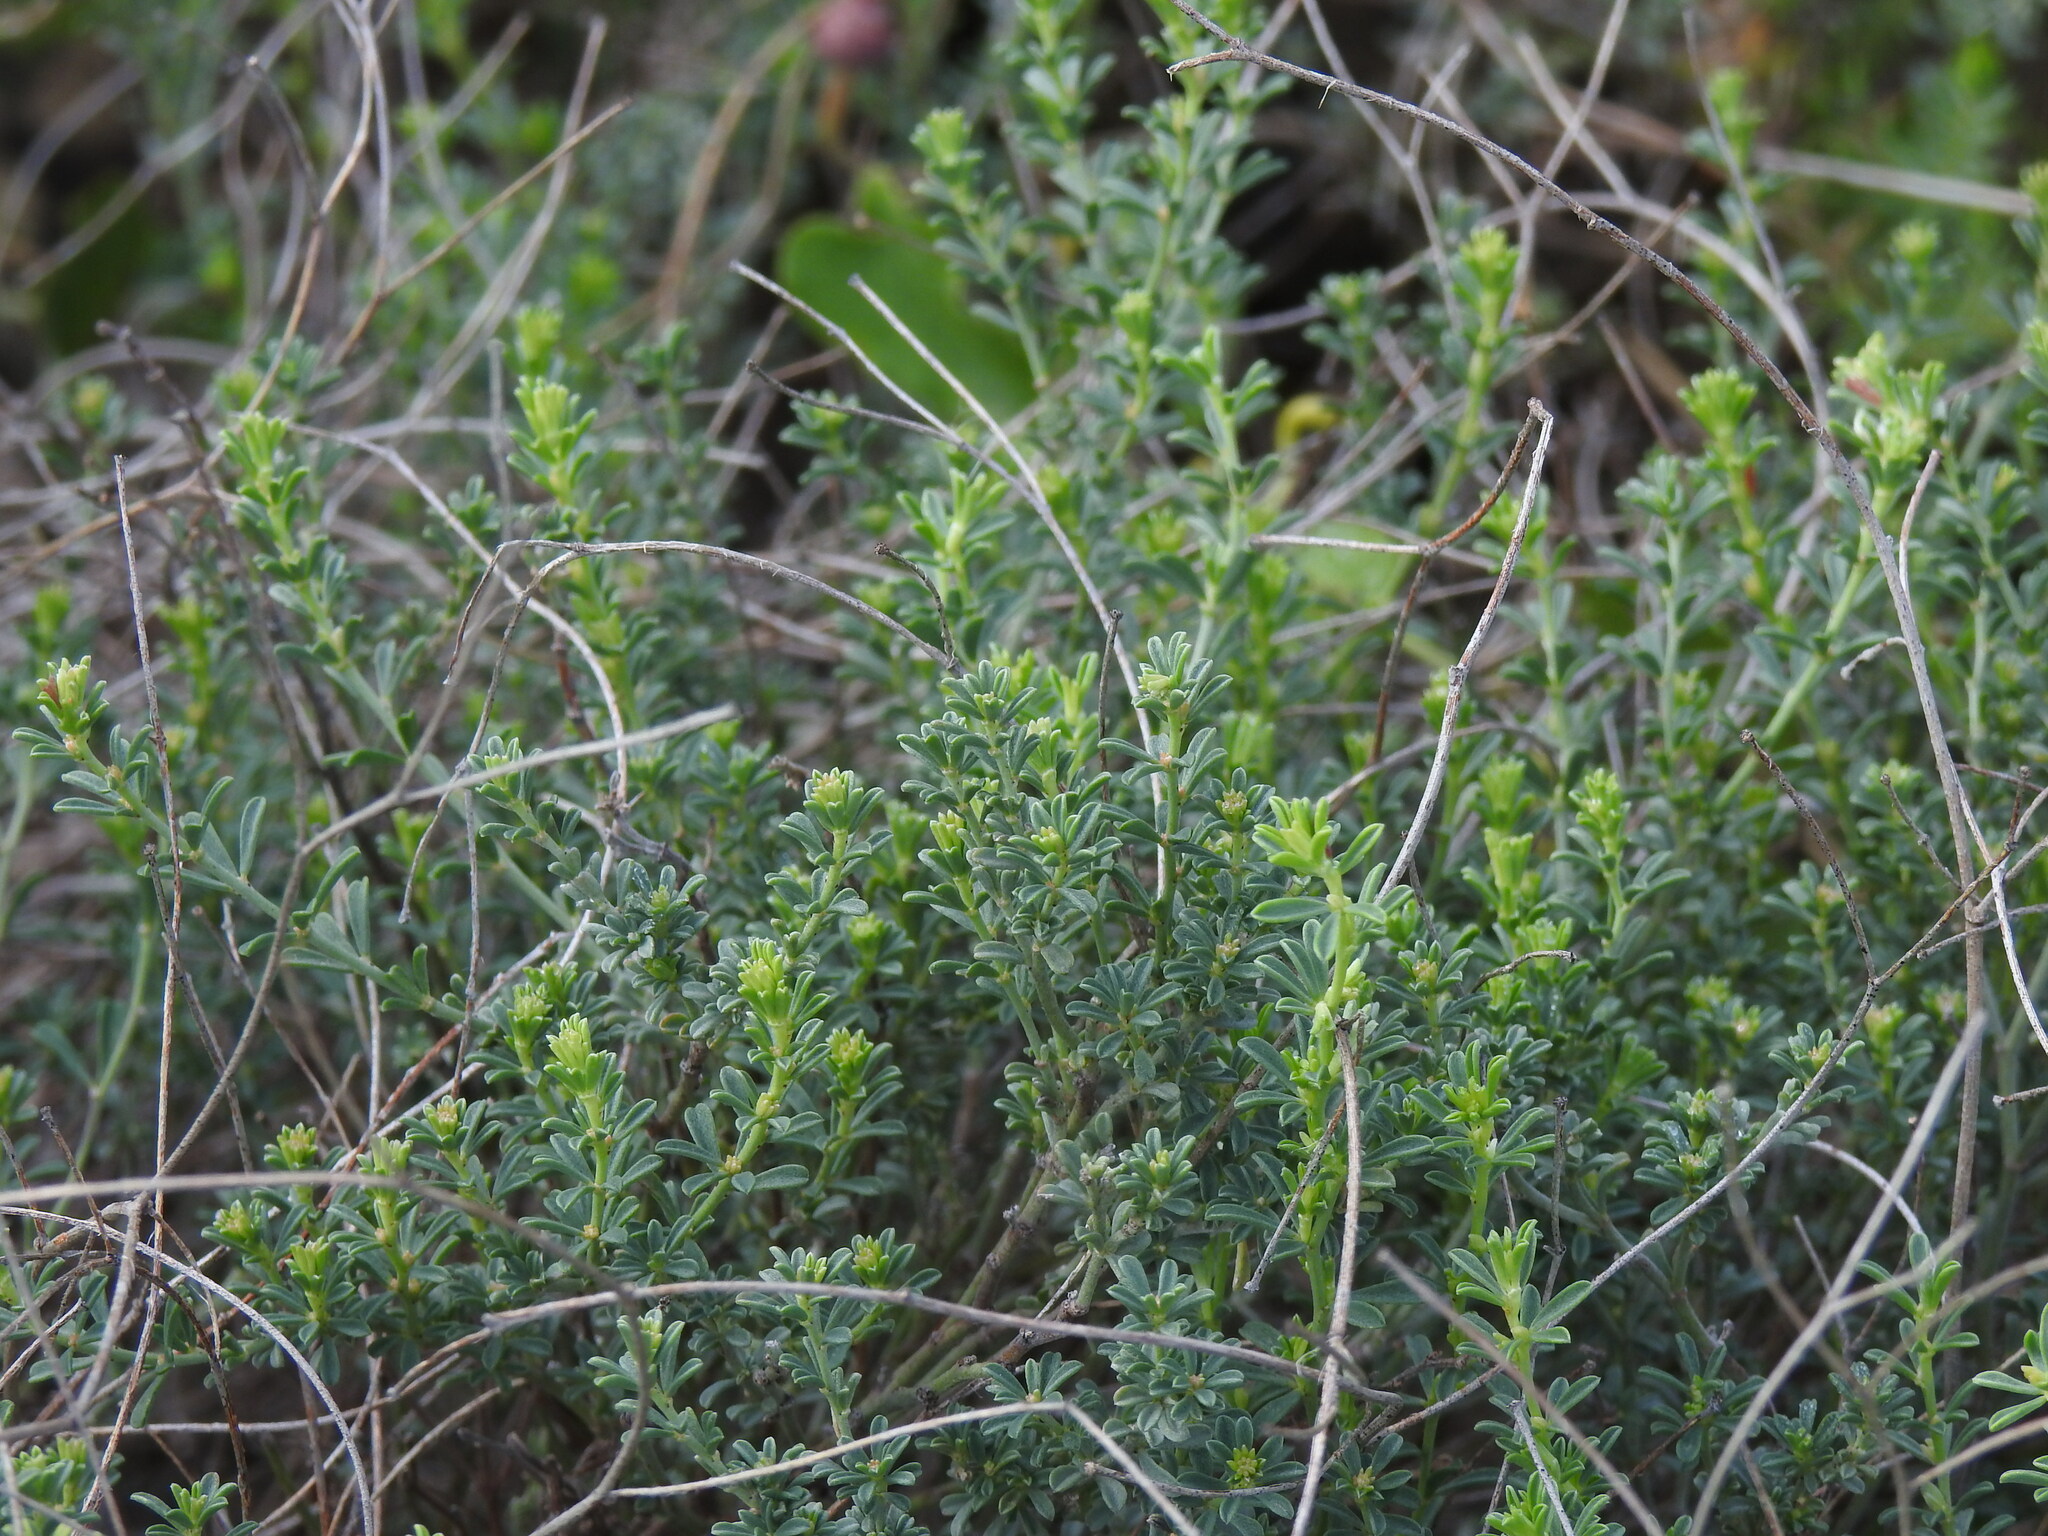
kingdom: Plantae
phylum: Tracheophyta
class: Magnoliopsida
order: Fabales
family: Fabaceae
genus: Lotus
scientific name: Lotus dorycnium
